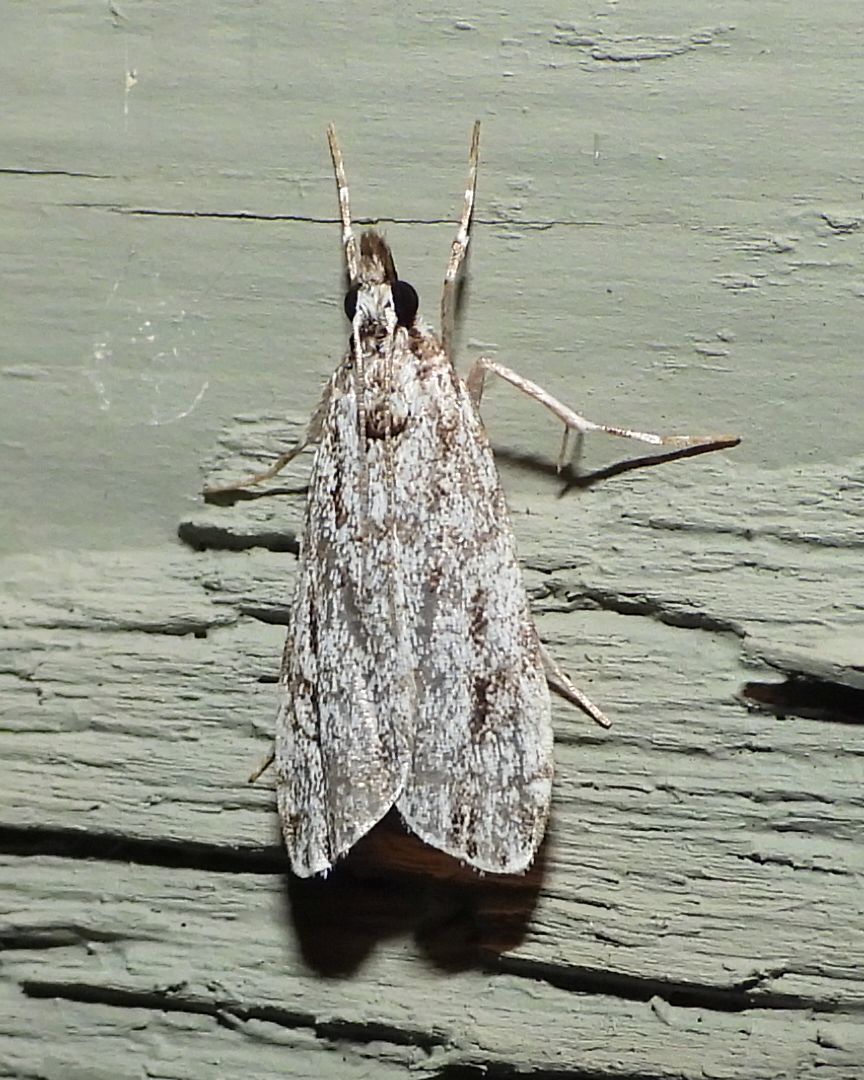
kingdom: Animalia
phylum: Arthropoda
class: Insecta
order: Lepidoptera
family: Crambidae
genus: Eudonia
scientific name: Eudonia strigalis
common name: Striped eudonia moth
